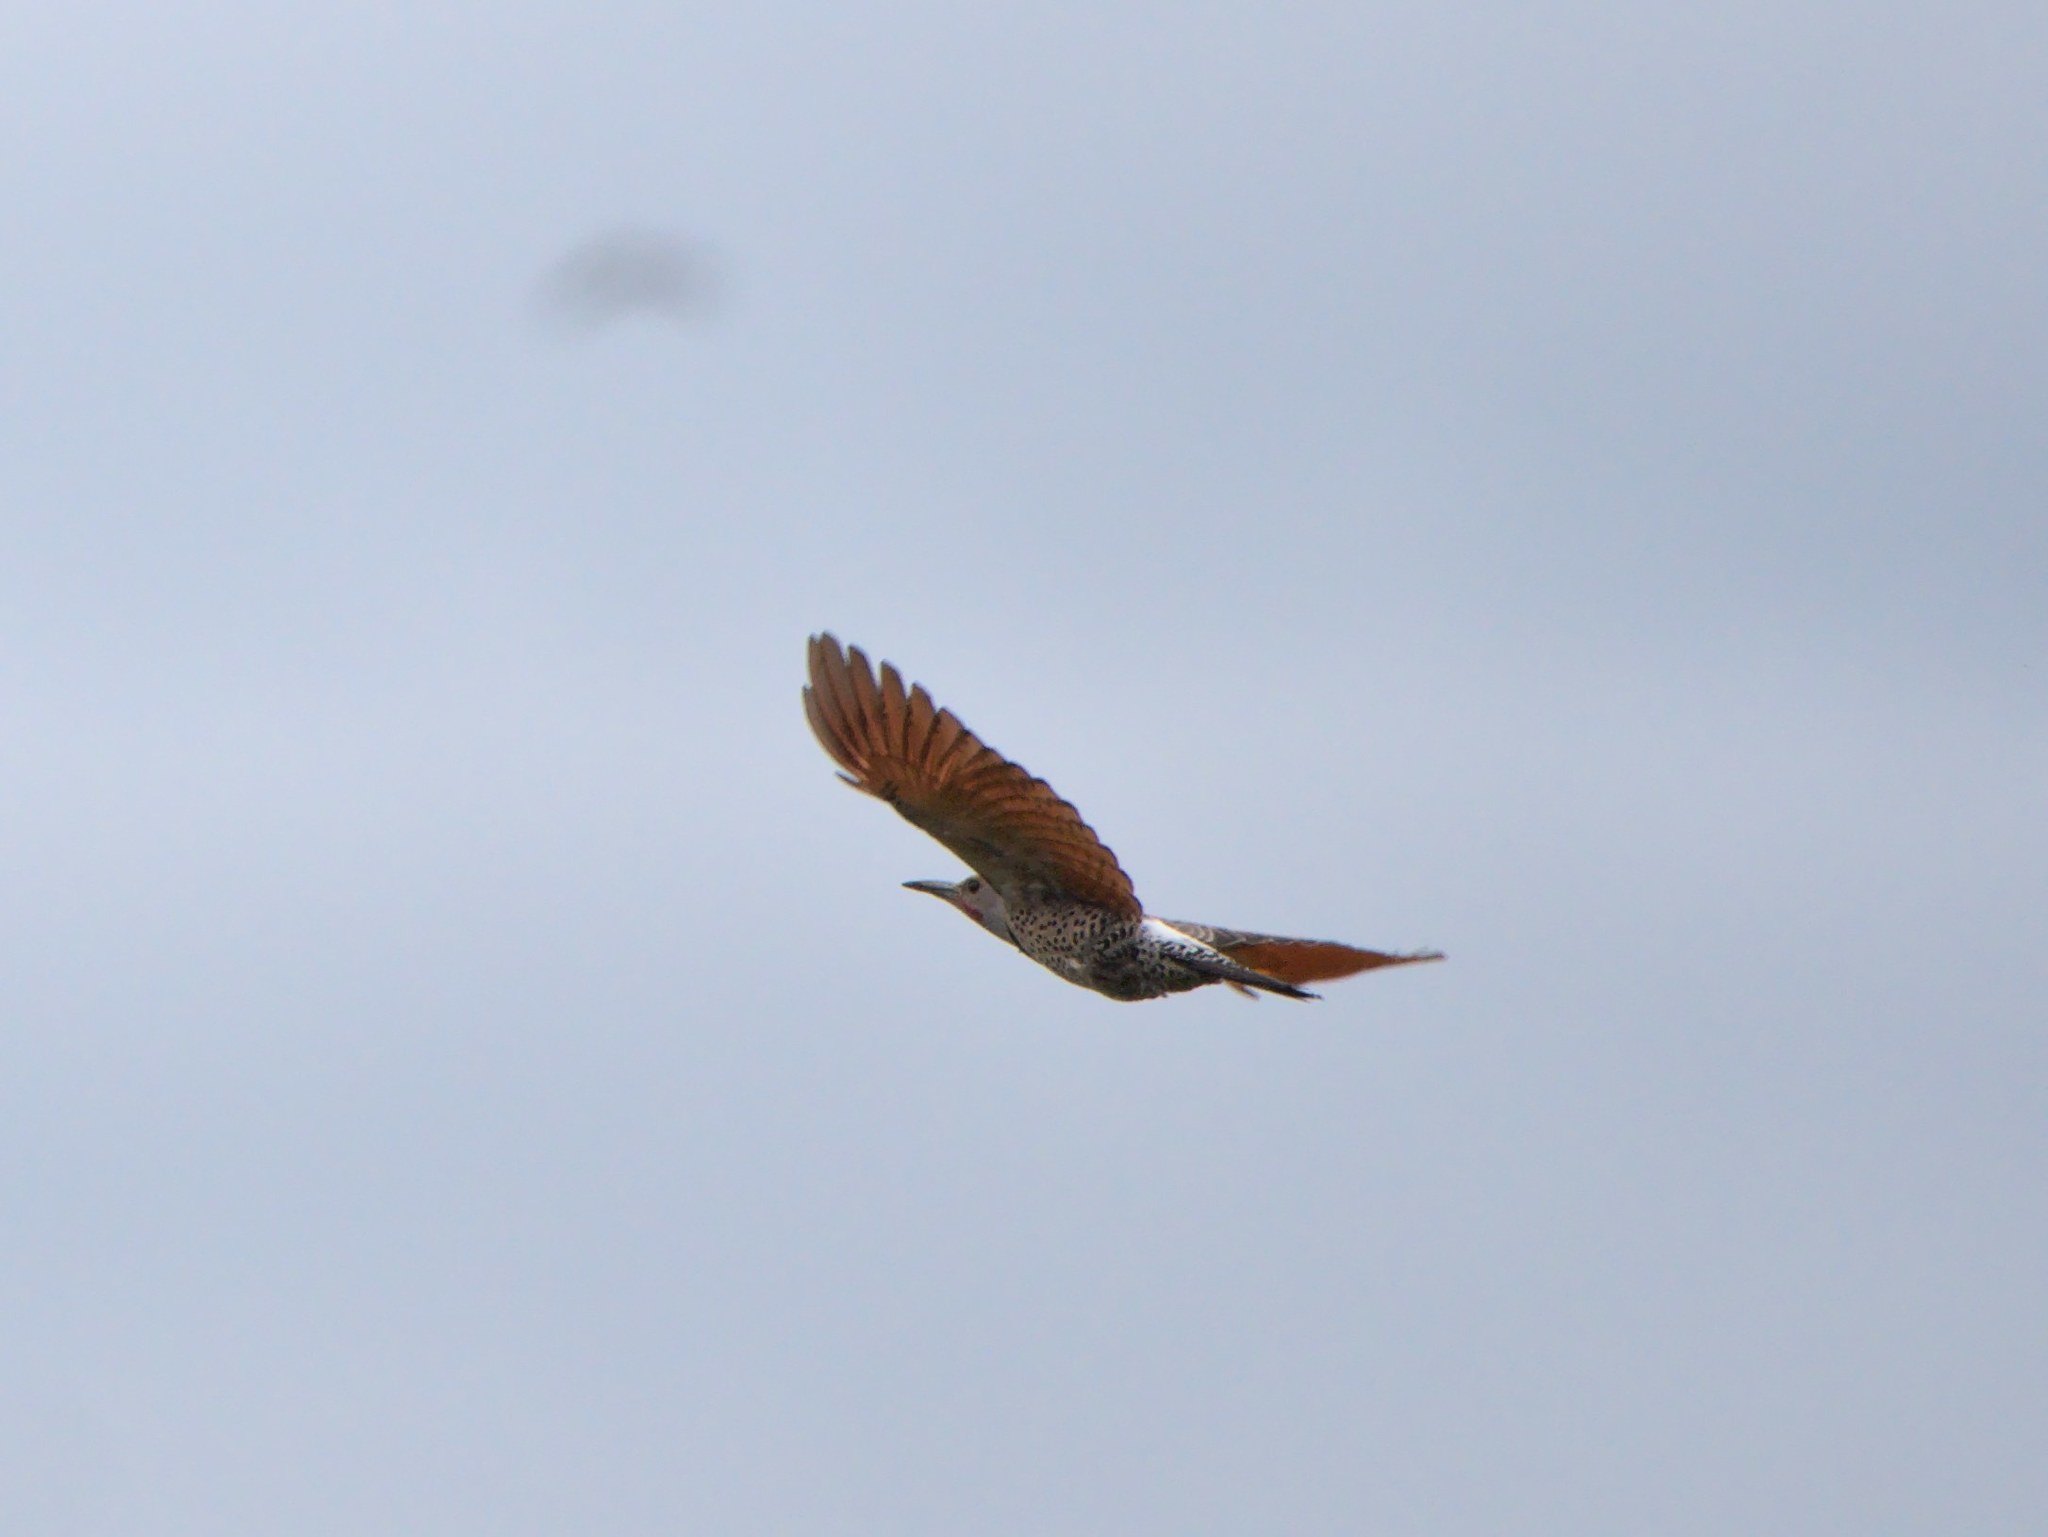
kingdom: Animalia
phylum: Chordata
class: Aves
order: Piciformes
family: Picidae
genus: Colaptes
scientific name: Colaptes auratus
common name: Northern flicker
